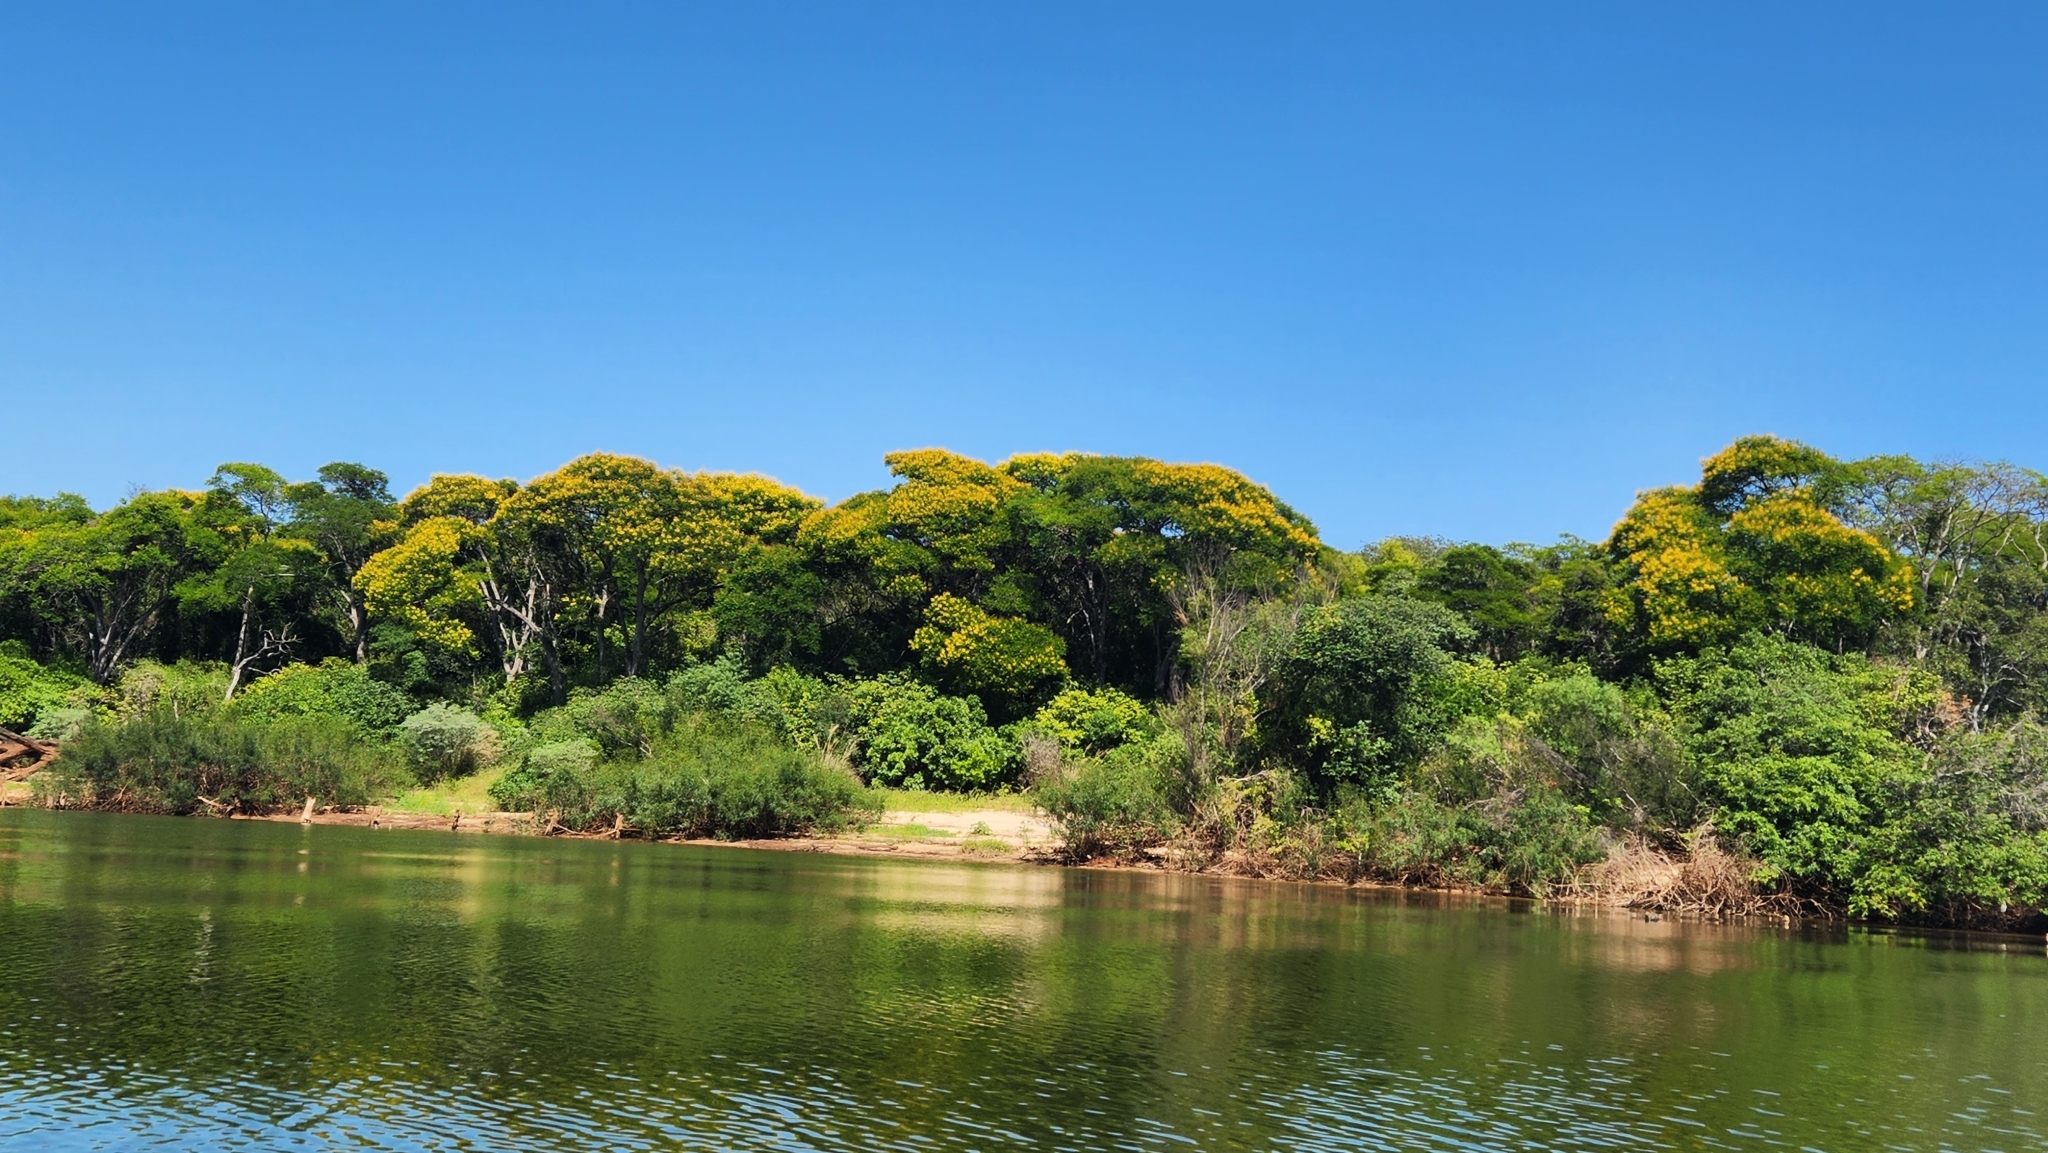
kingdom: Plantae
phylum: Tracheophyta
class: Magnoliopsida
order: Fabales
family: Fabaceae
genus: Peltophorum
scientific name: Peltophorum dubium
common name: Horsebush
